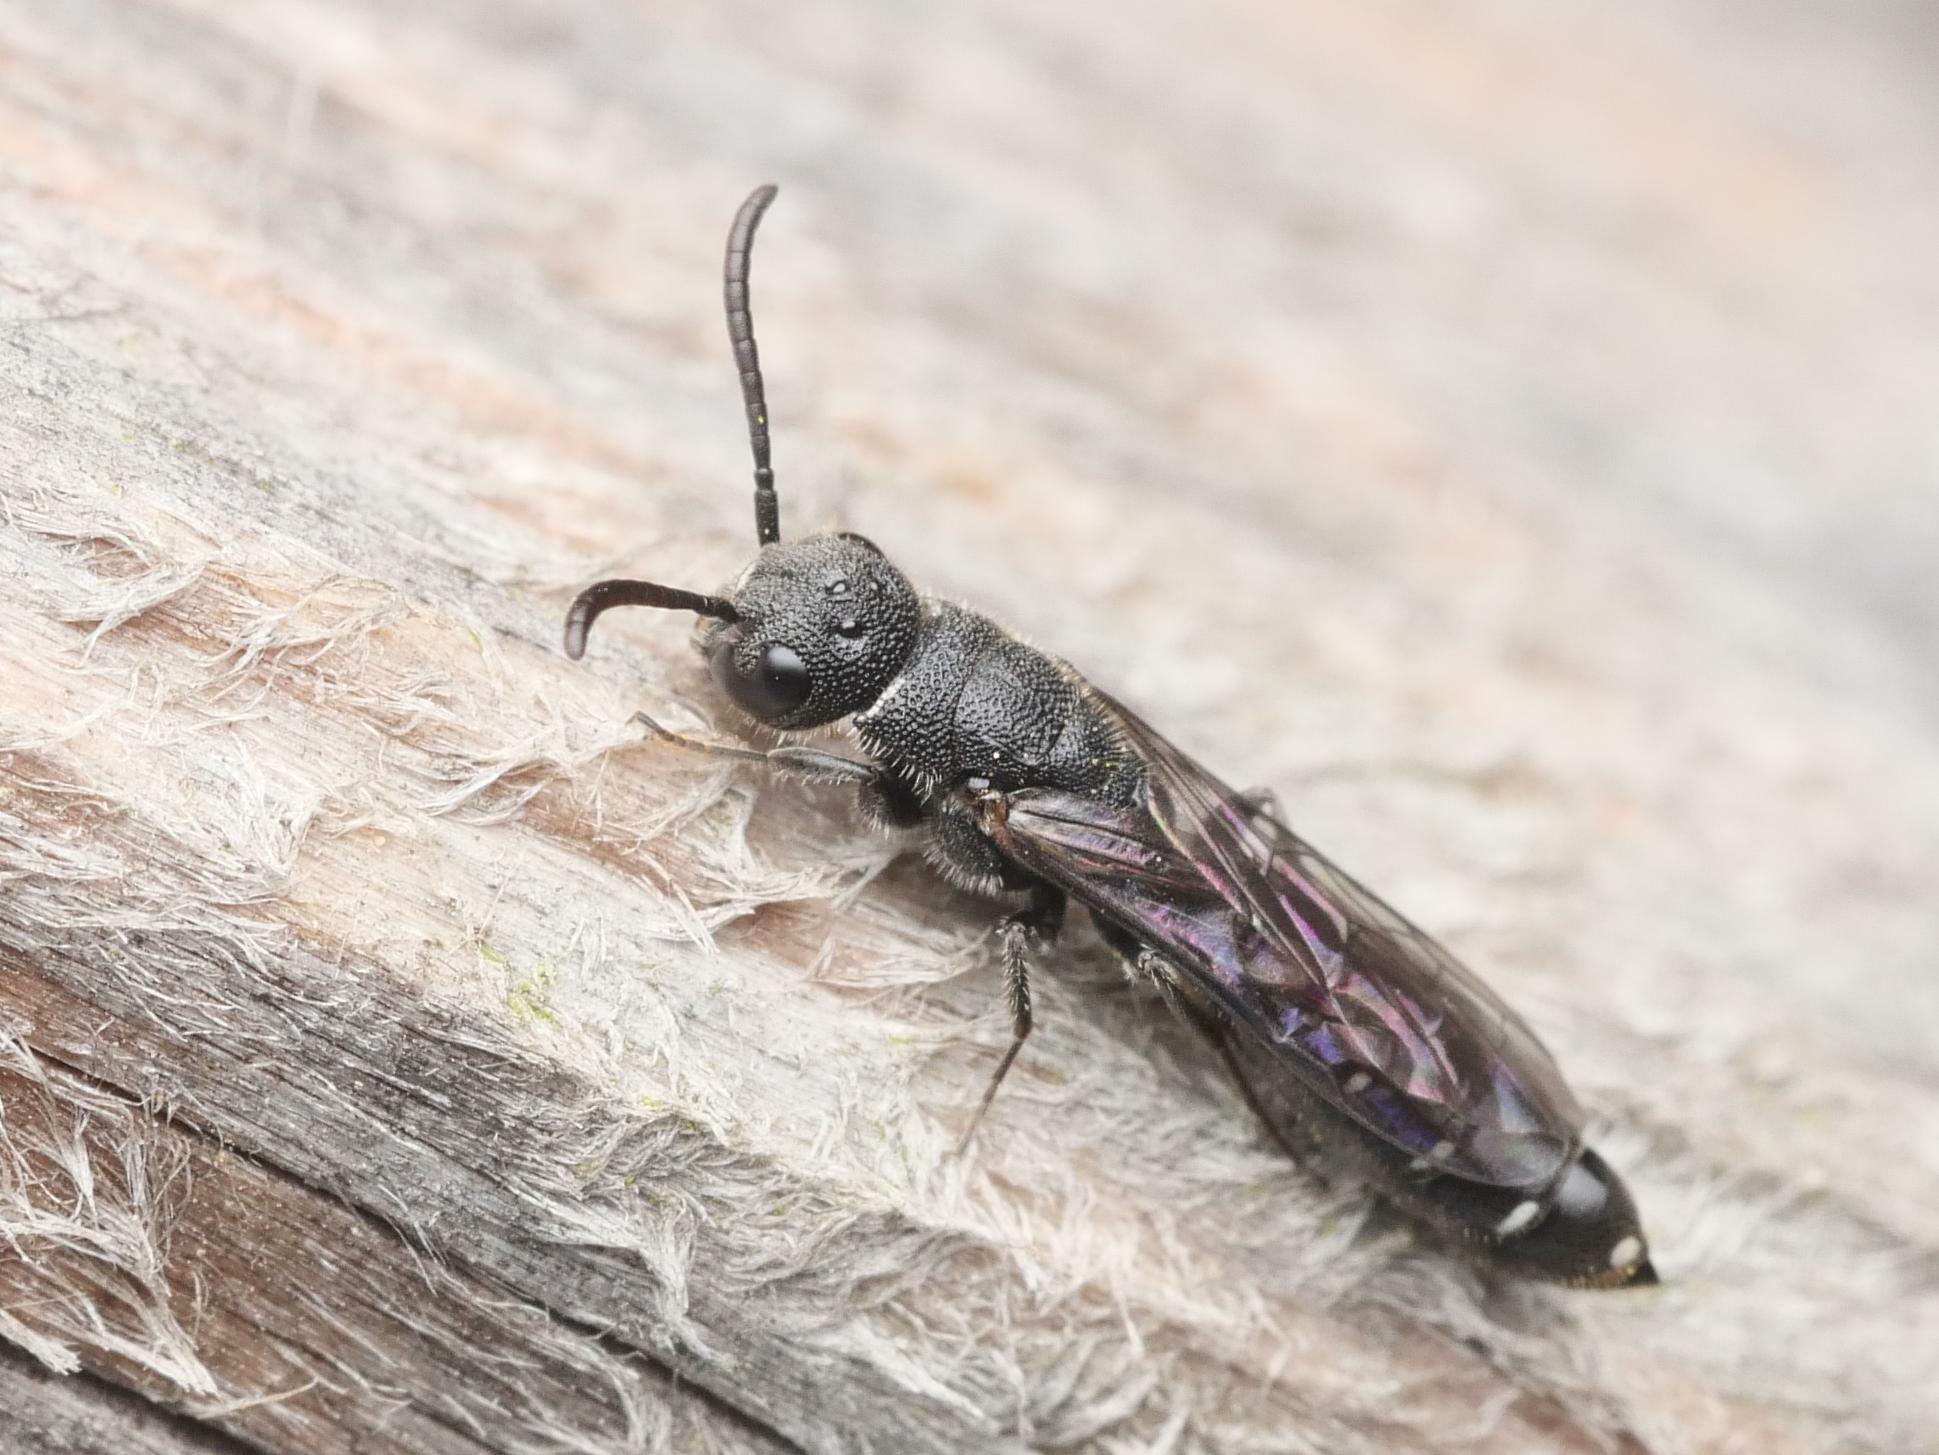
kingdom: Animalia
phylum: Arthropoda
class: Insecta
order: Hymenoptera
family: Sapygidae
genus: Sapygina
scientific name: Sapygina decemguttata
